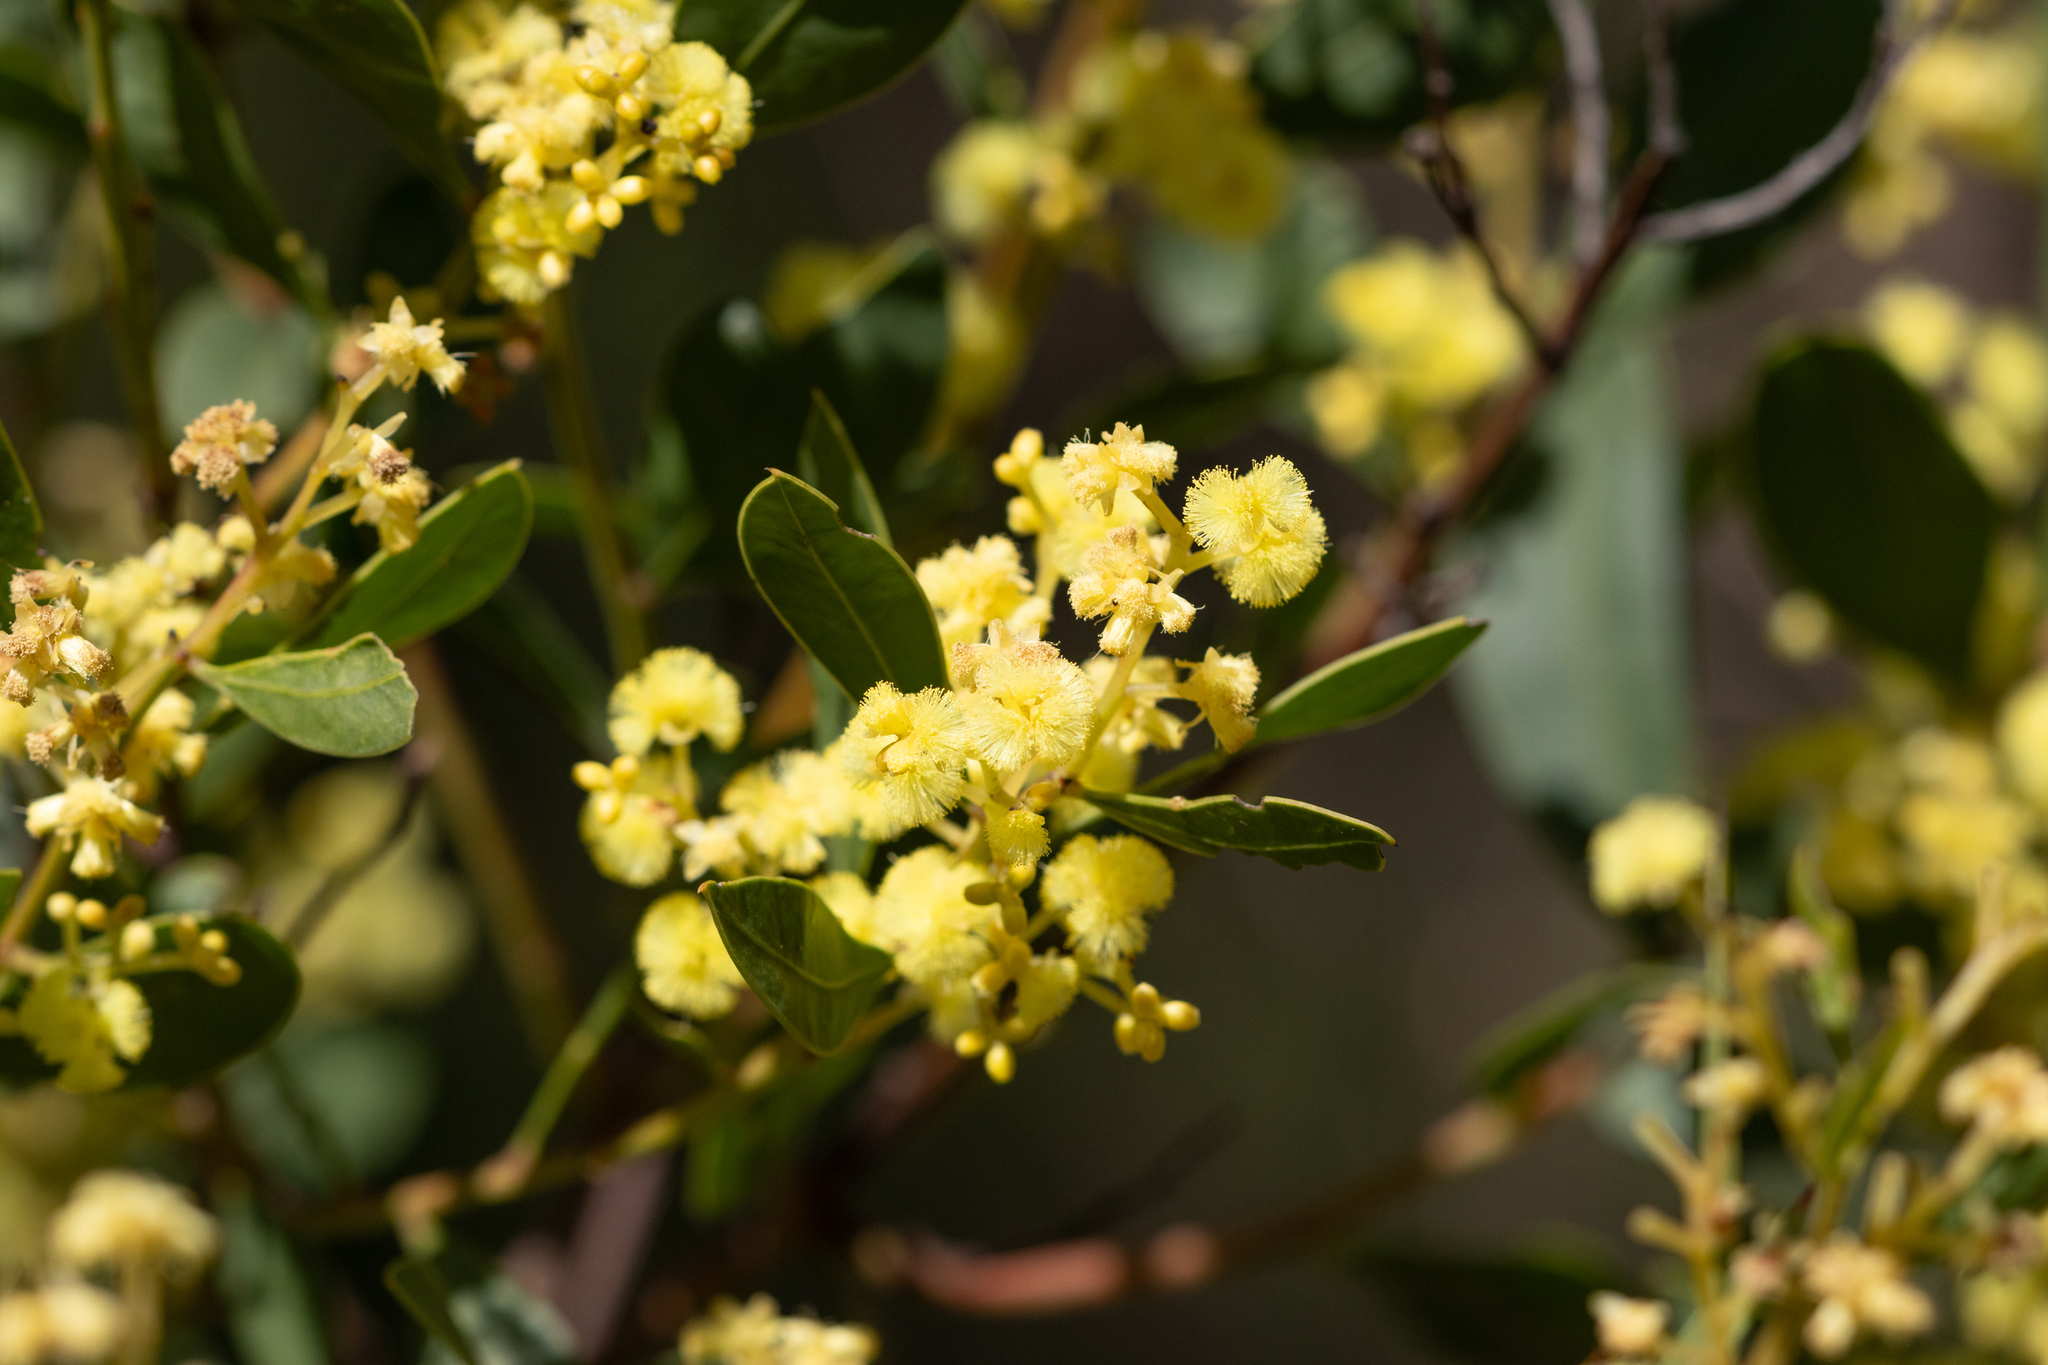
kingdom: Plantae
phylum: Tracheophyta
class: Magnoliopsida
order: Fabales
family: Fabaceae
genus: Acacia
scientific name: Acacia myrtifolia
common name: Myrtle wattle
